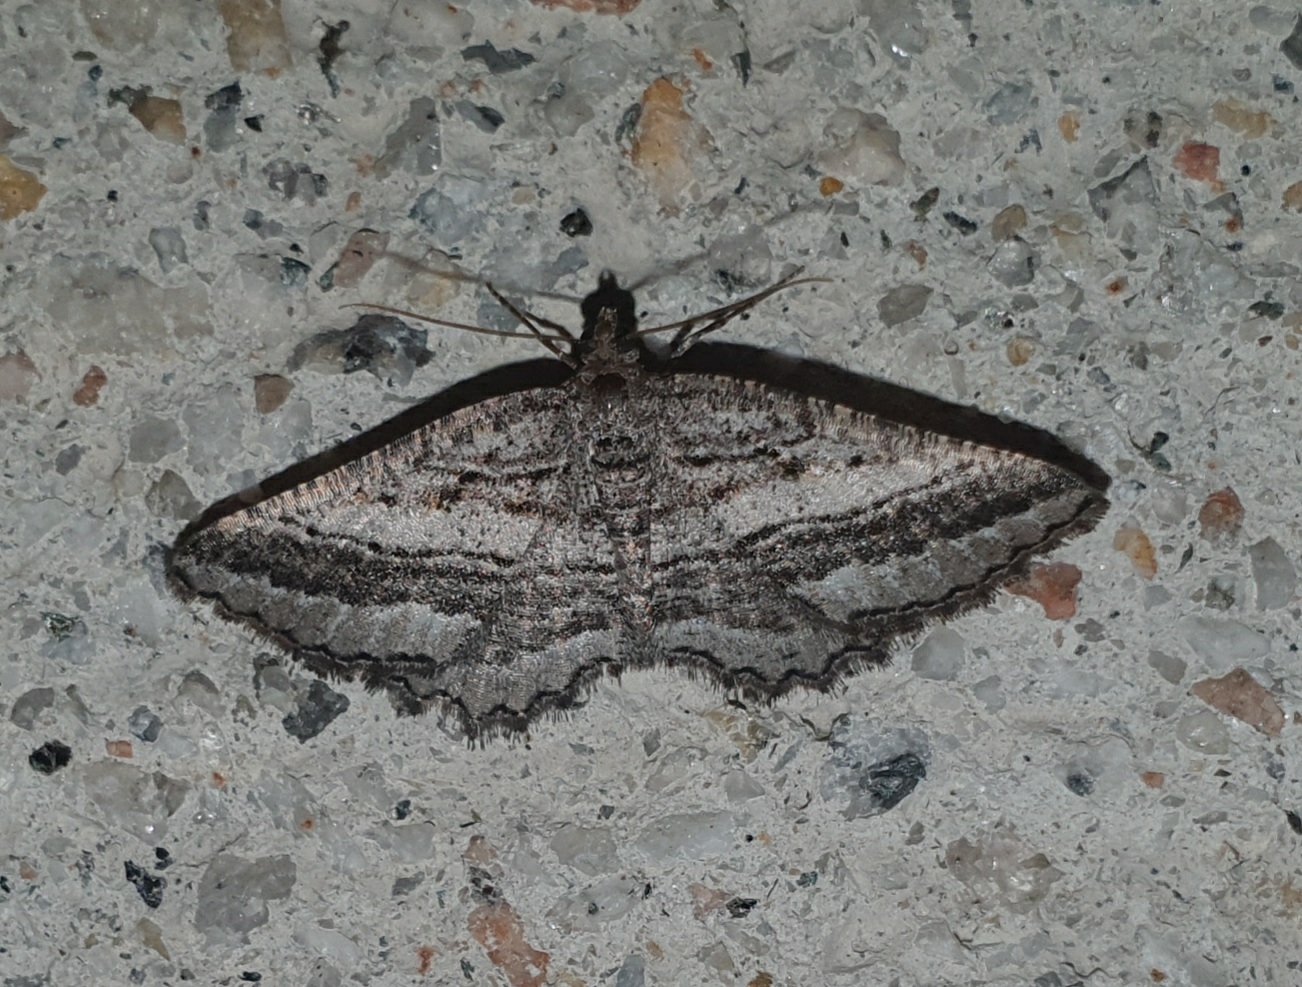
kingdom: Animalia
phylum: Arthropoda
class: Insecta
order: Lepidoptera
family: Geometridae
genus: Rhoptria
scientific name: Rhoptria asperaria
